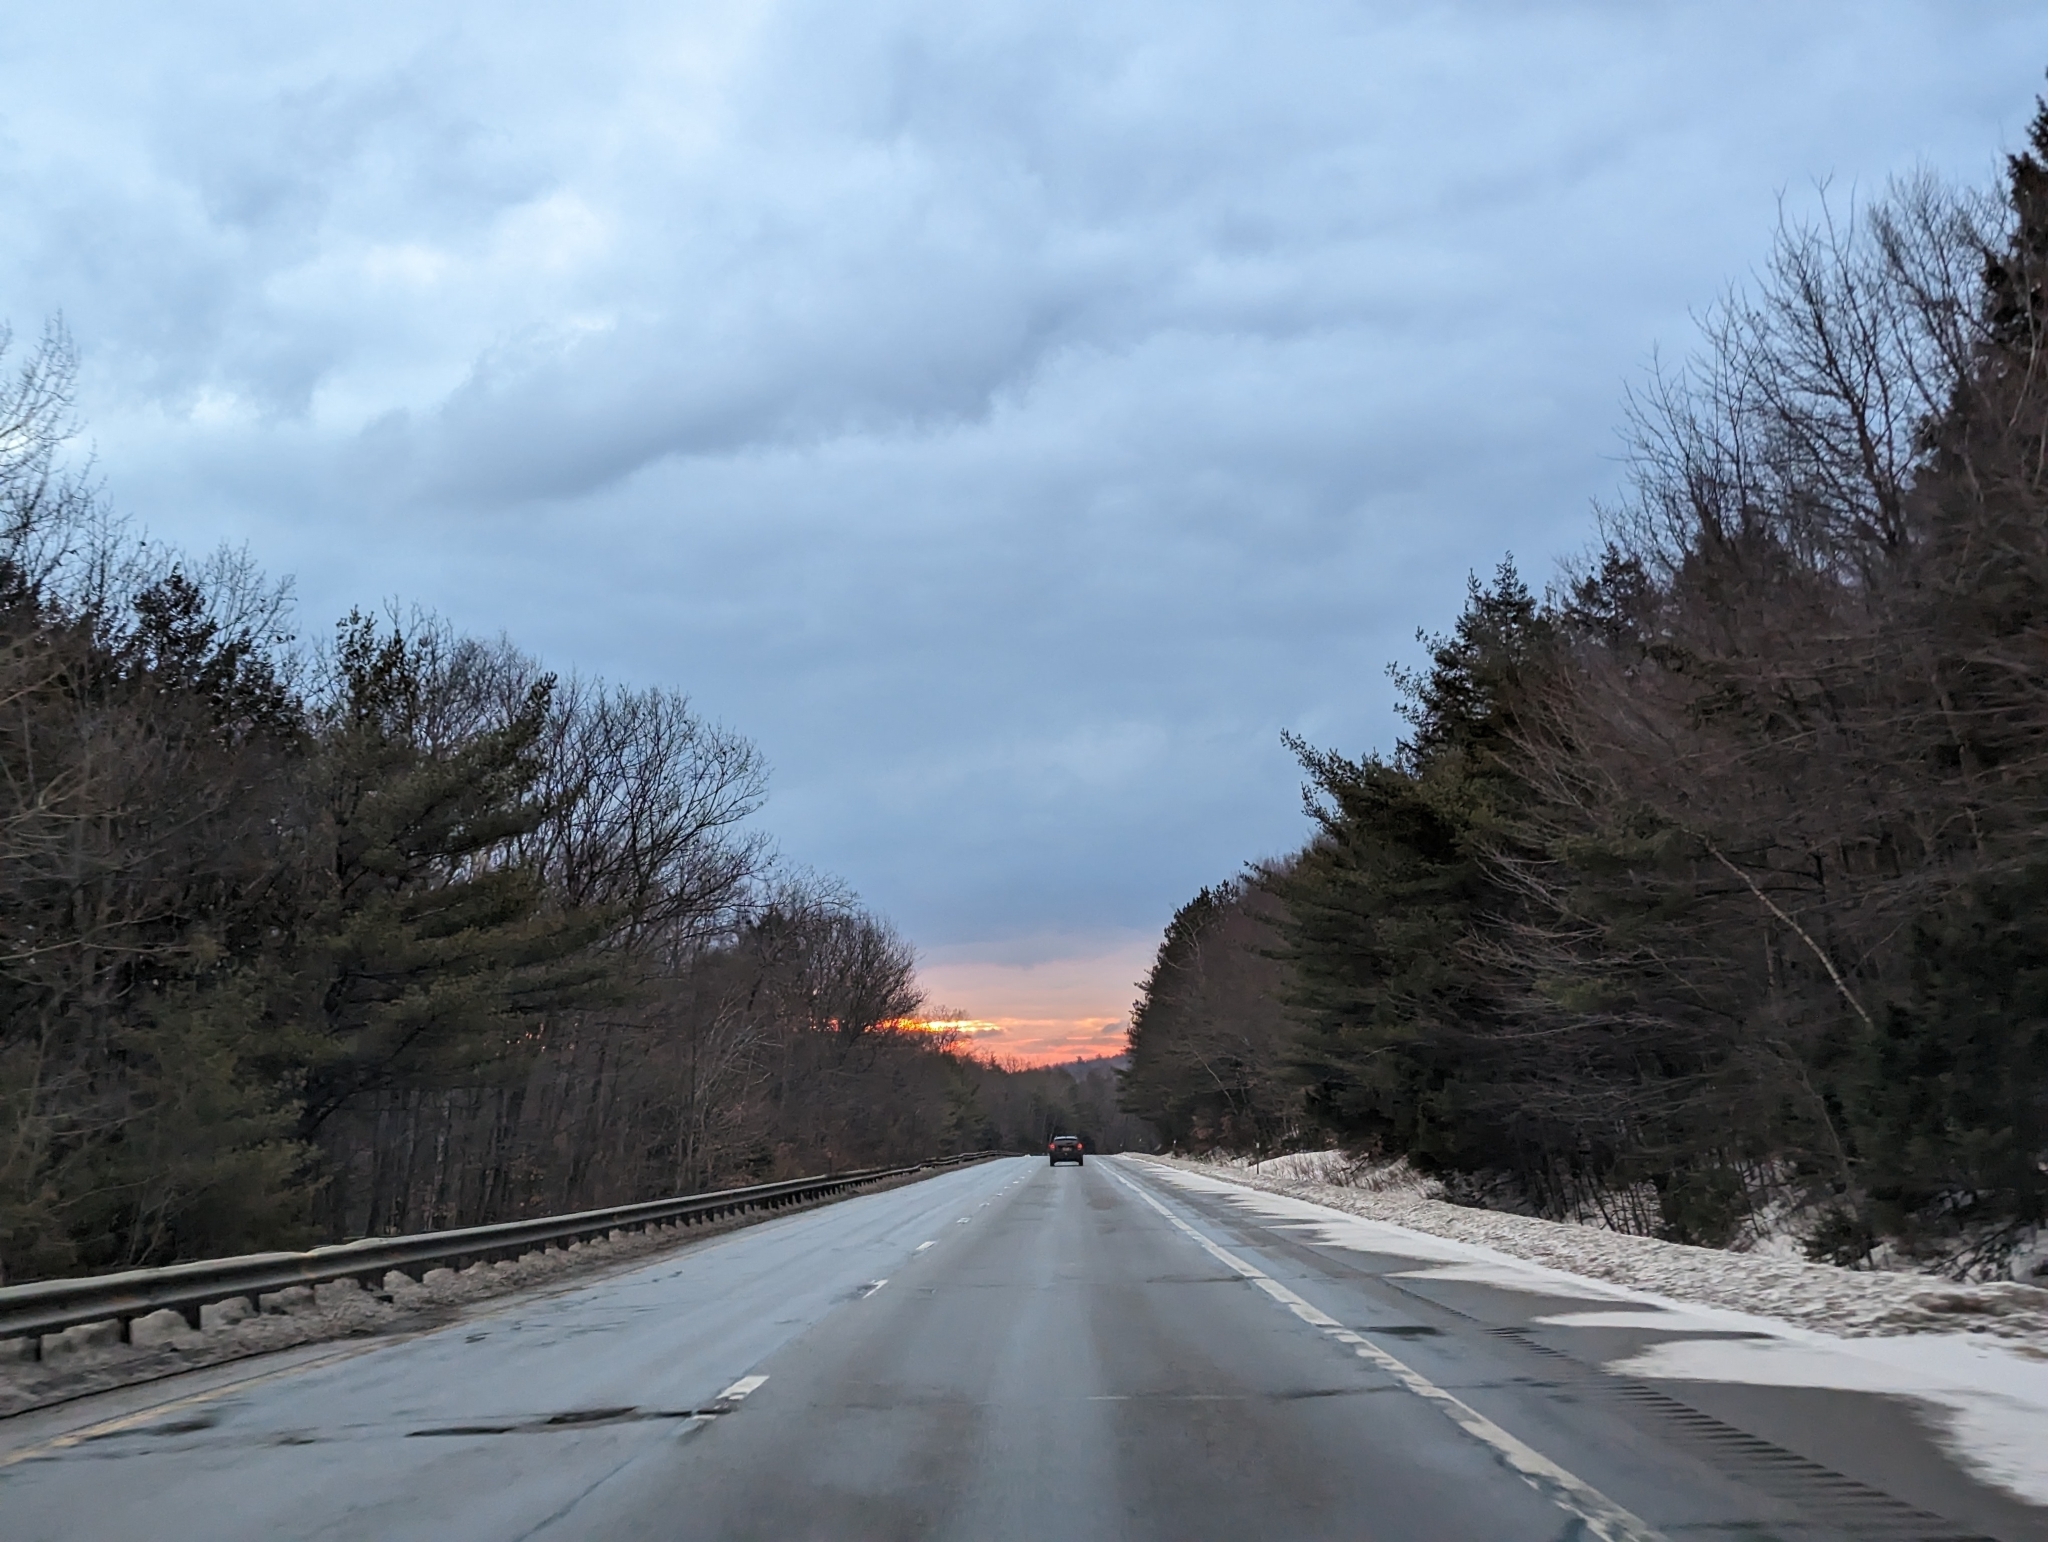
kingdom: Plantae
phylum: Tracheophyta
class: Pinopsida
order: Pinales
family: Pinaceae
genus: Pinus
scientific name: Pinus strobus
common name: Weymouth pine
